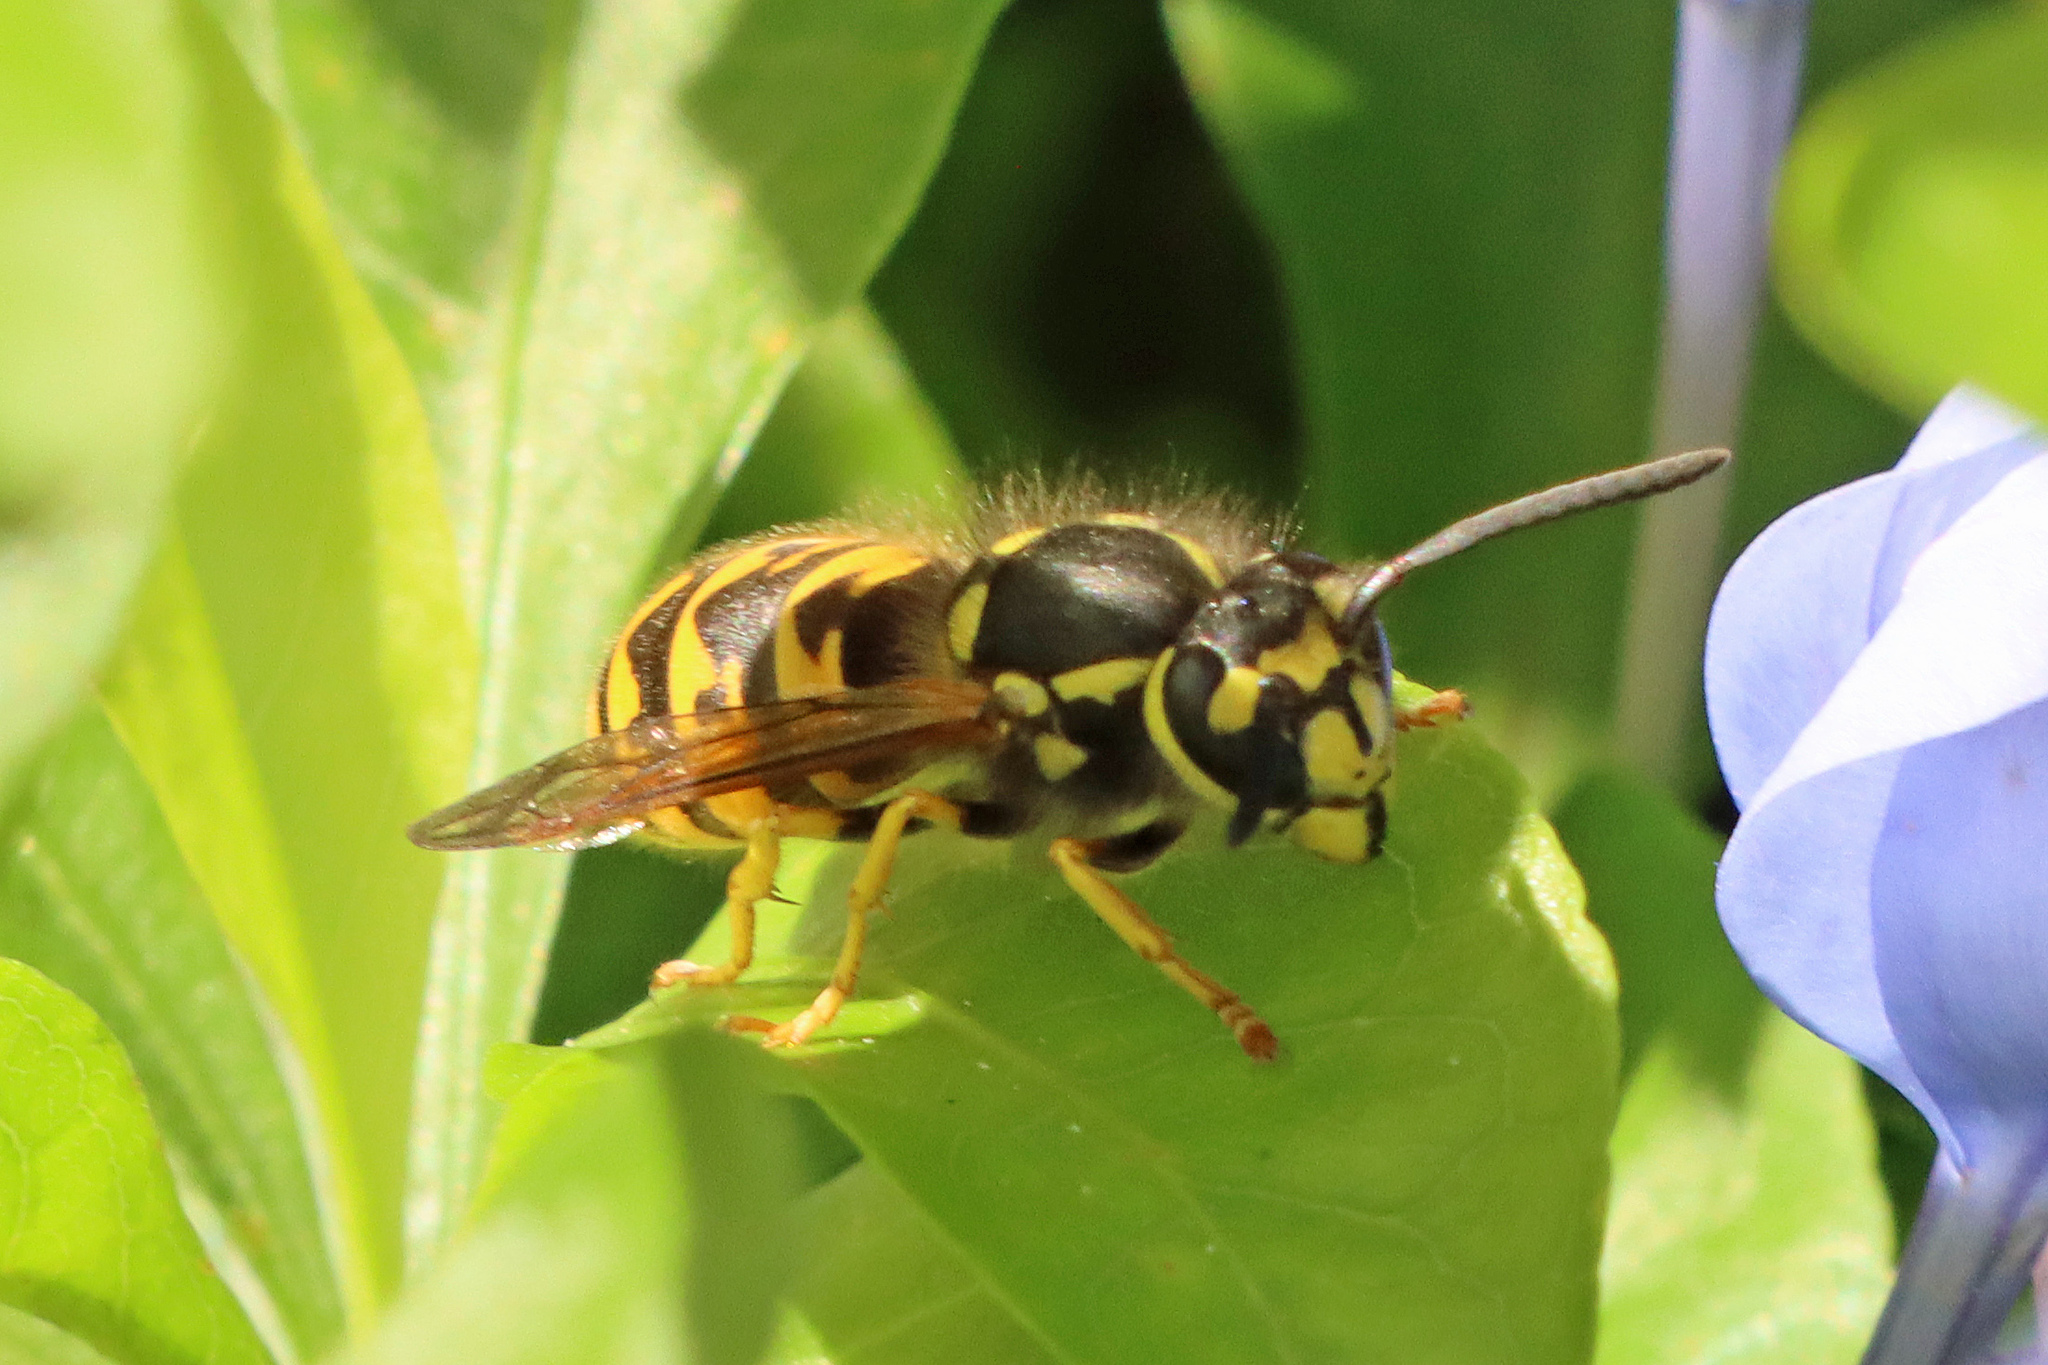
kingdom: Animalia
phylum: Arthropoda
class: Insecta
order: Hymenoptera
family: Vespidae
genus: Vespula
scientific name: Vespula germanica
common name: German wasp
